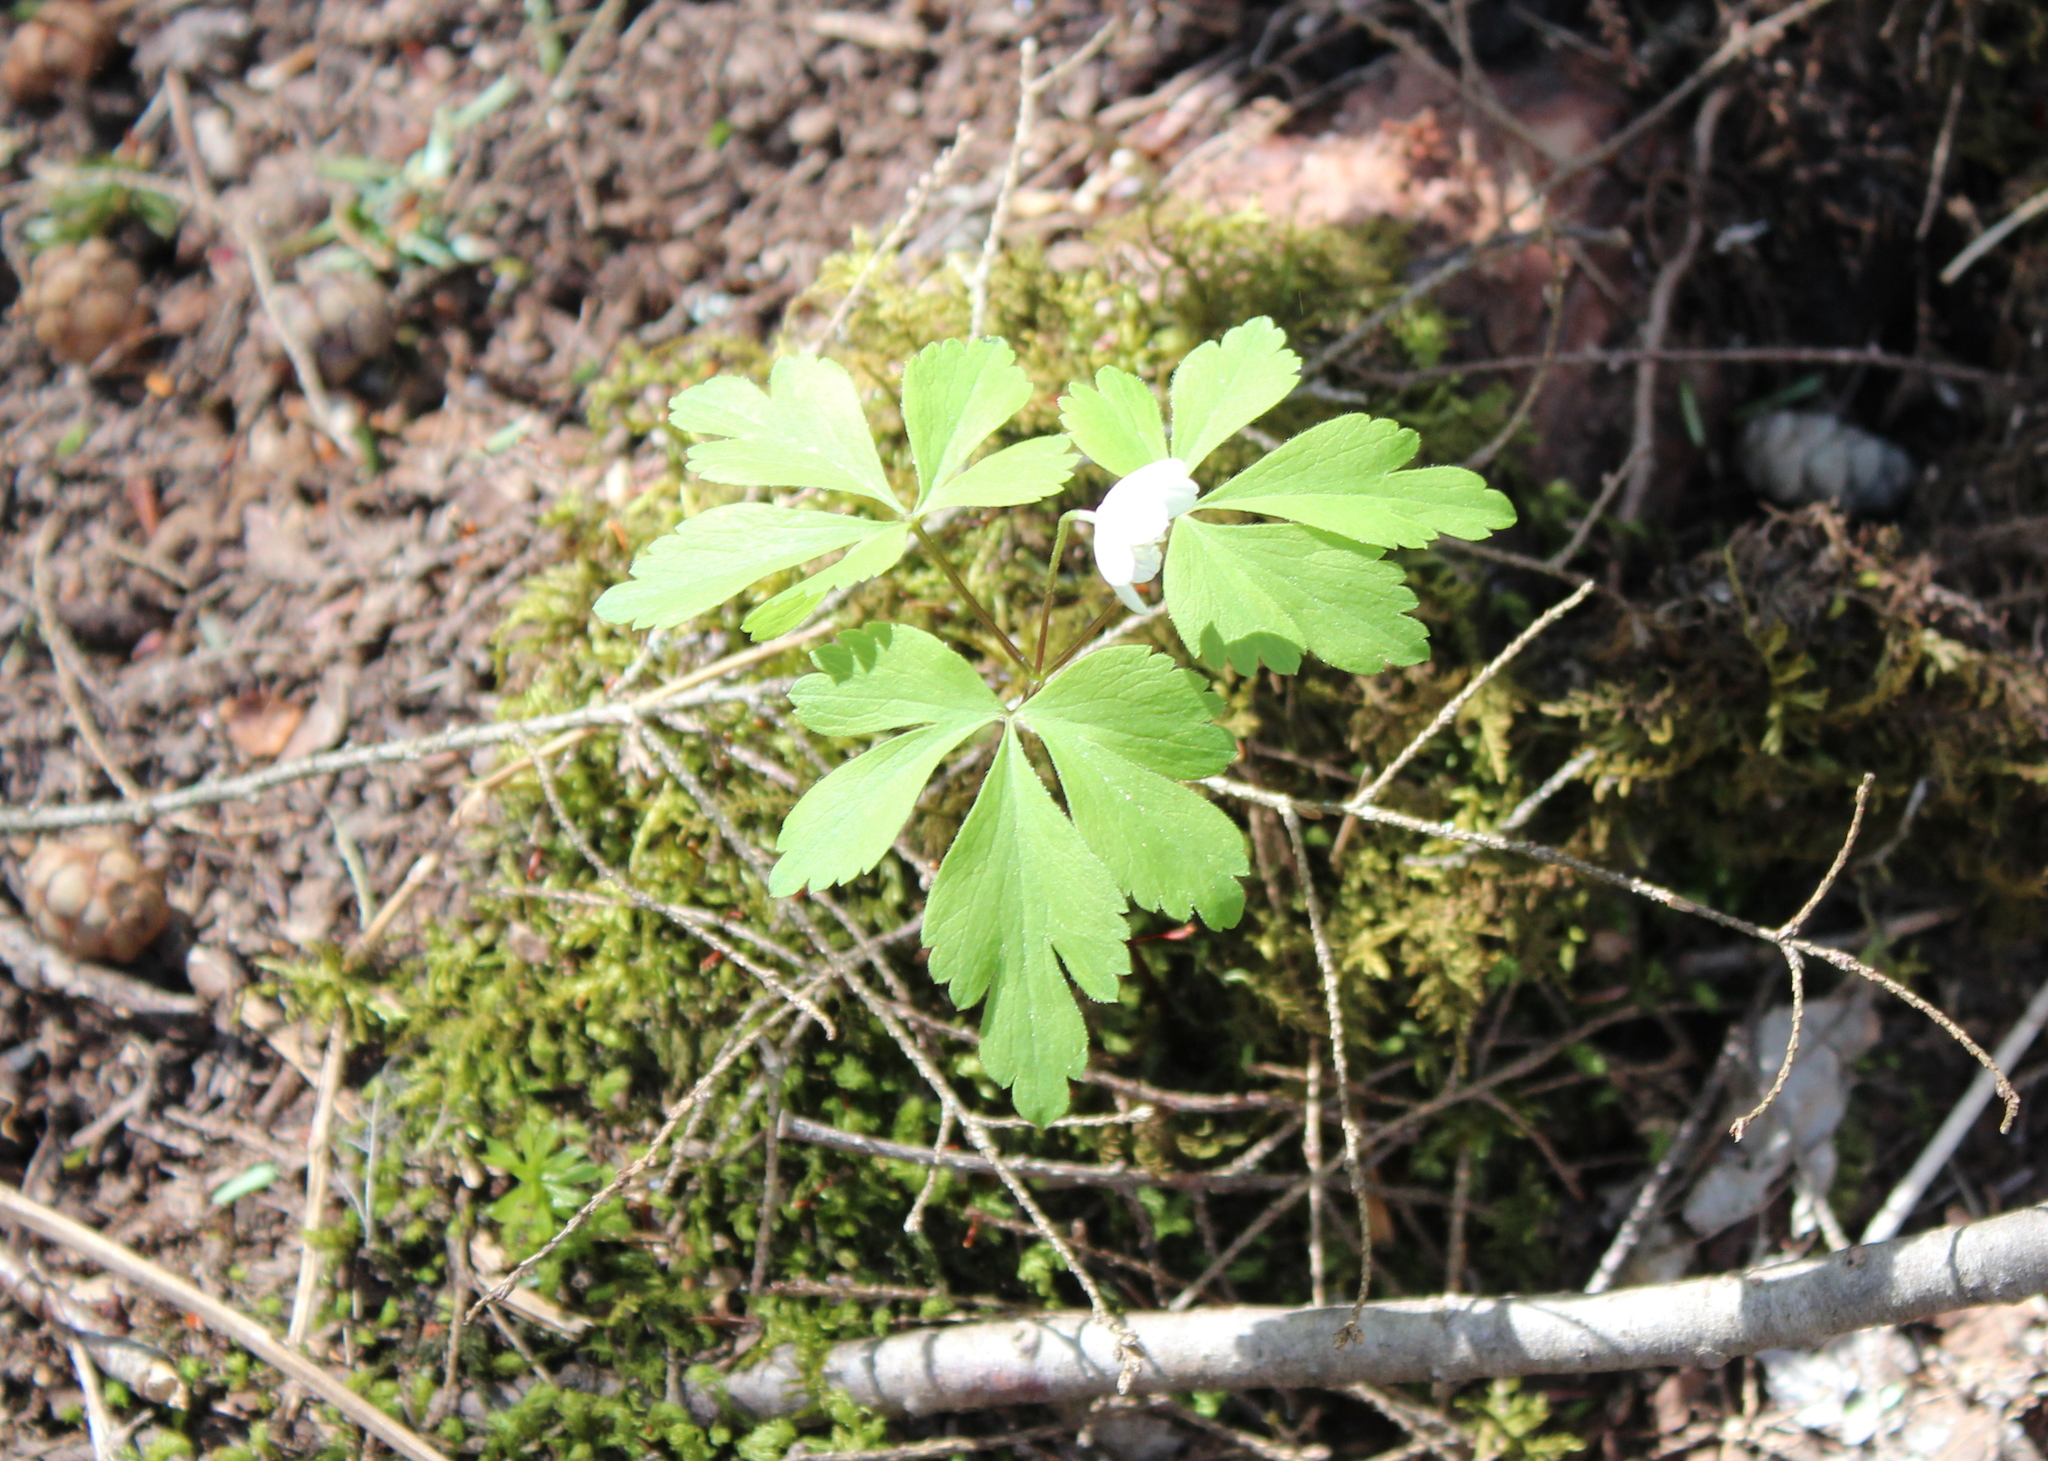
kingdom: Plantae
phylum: Tracheophyta
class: Magnoliopsida
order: Ranunculales
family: Ranunculaceae
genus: Anemone
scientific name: Anemone quinquefolia
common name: Wood anemone
